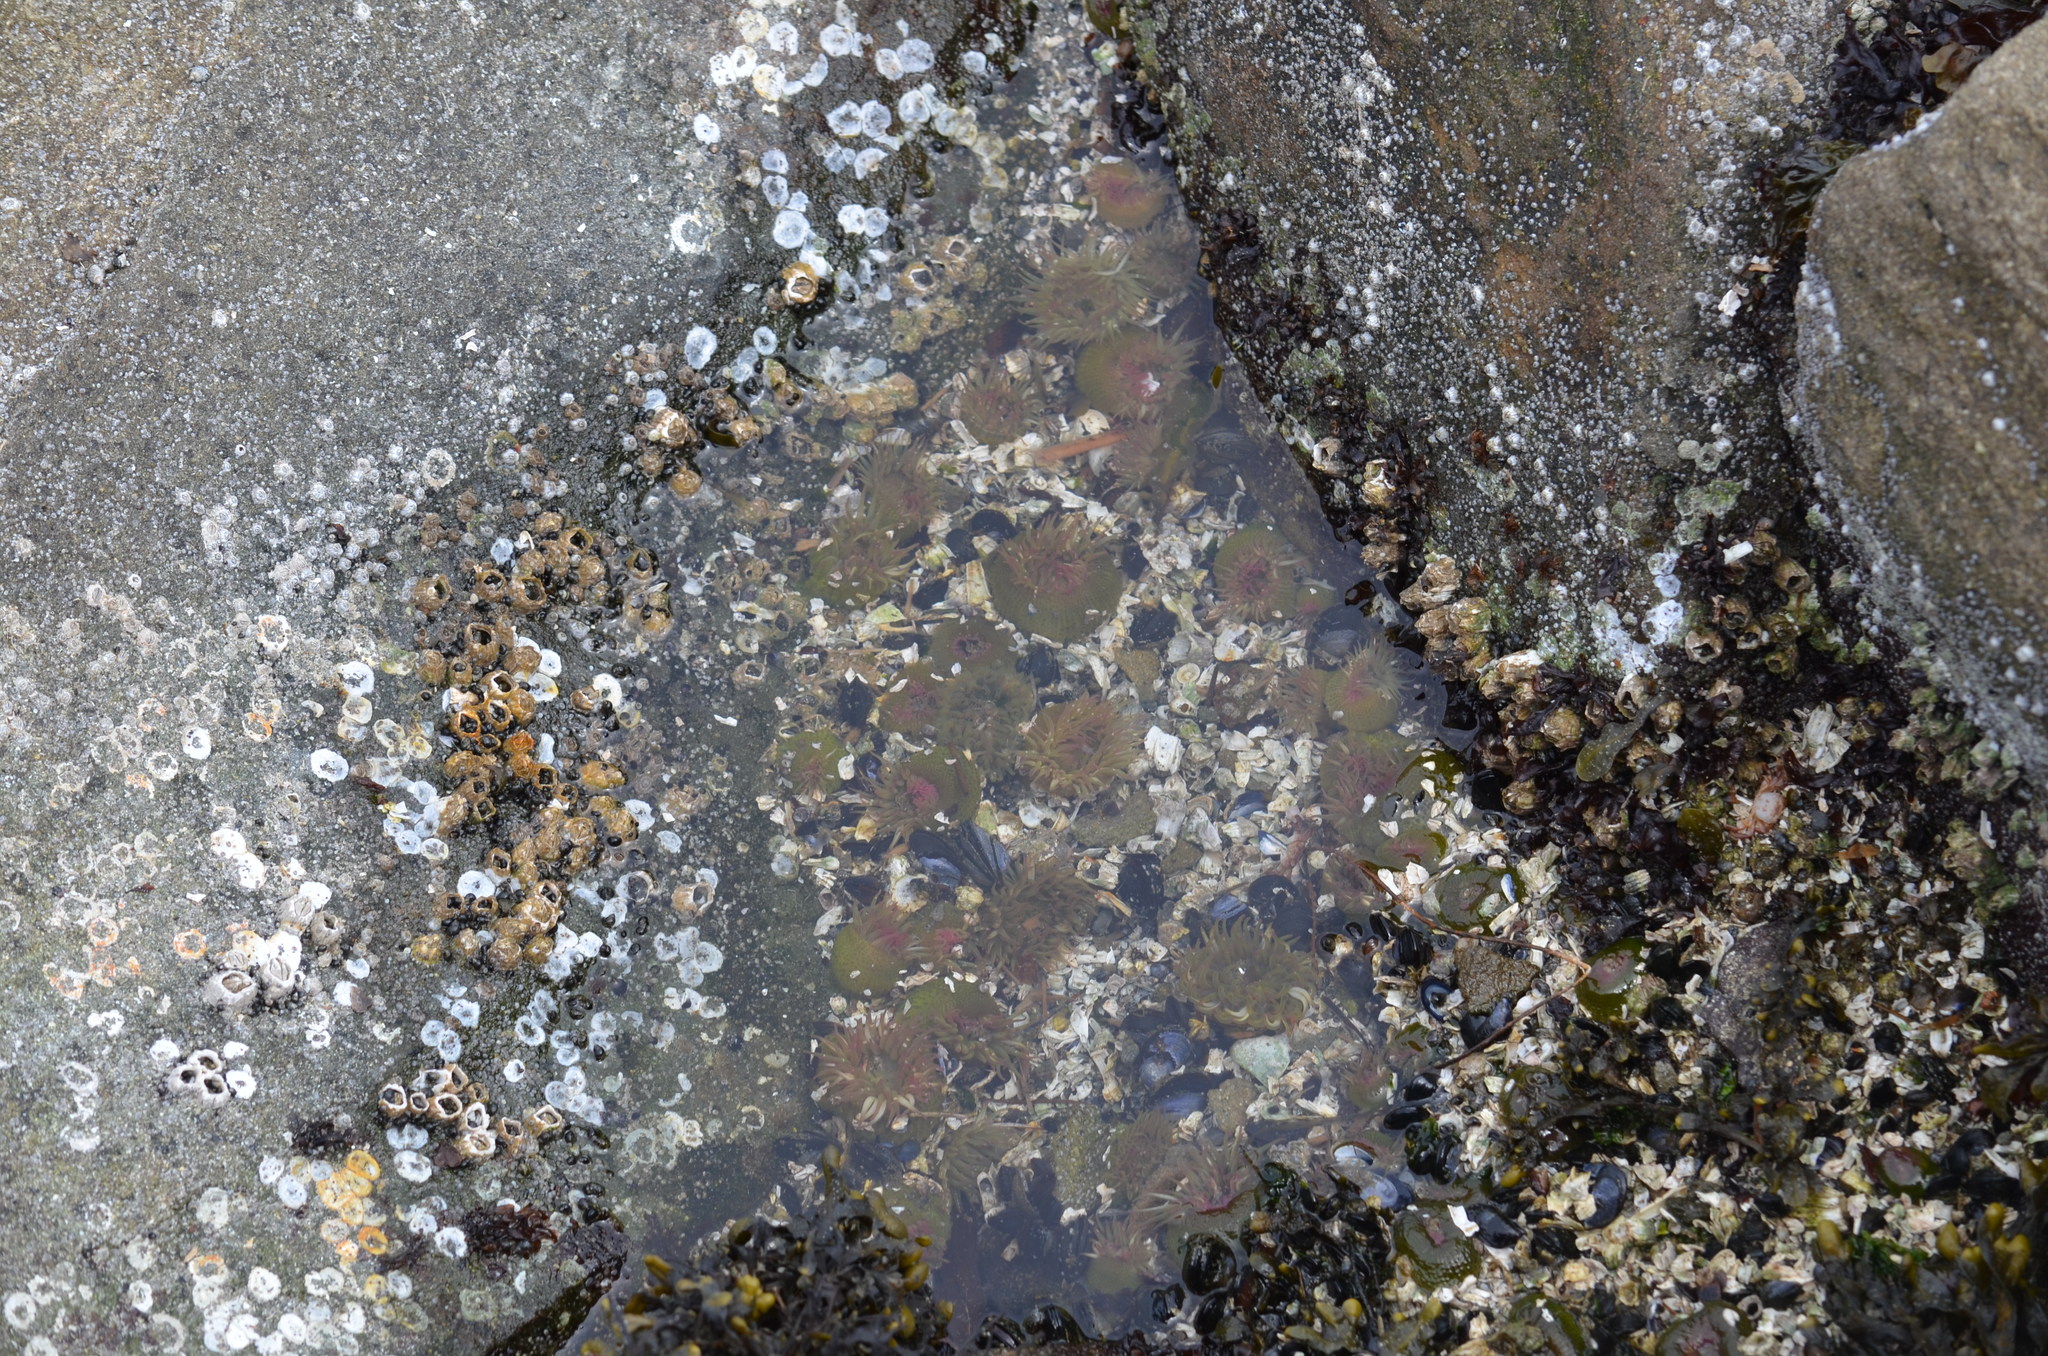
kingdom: Animalia
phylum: Cnidaria
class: Anthozoa
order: Actiniaria
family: Actiniidae
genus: Anthopleura
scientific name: Anthopleura elegantissima
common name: Clonal anemone
